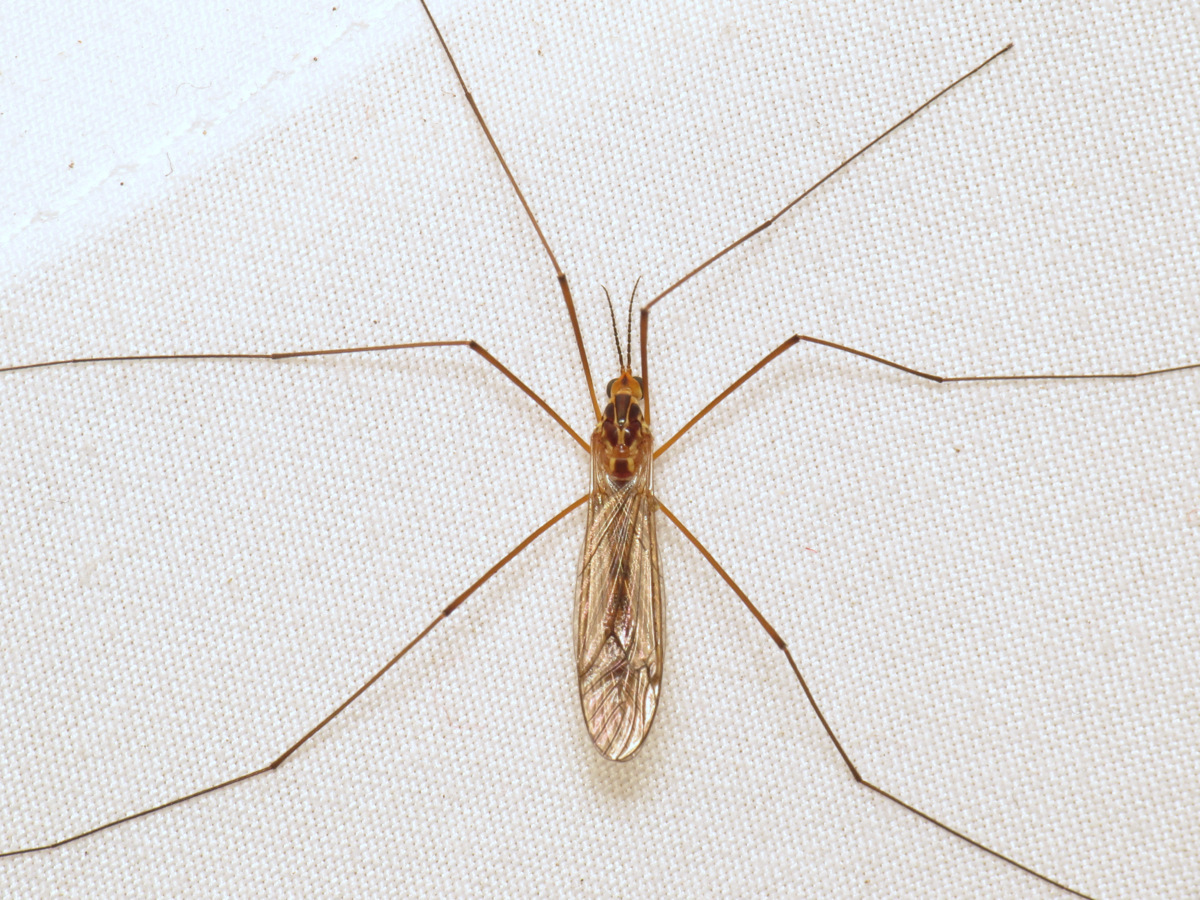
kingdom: Animalia
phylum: Arthropoda
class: Insecta
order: Diptera
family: Tipulidae
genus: Nephrotoma
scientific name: Nephrotoma ferruginea
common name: Ferruginous tiger crane fly
